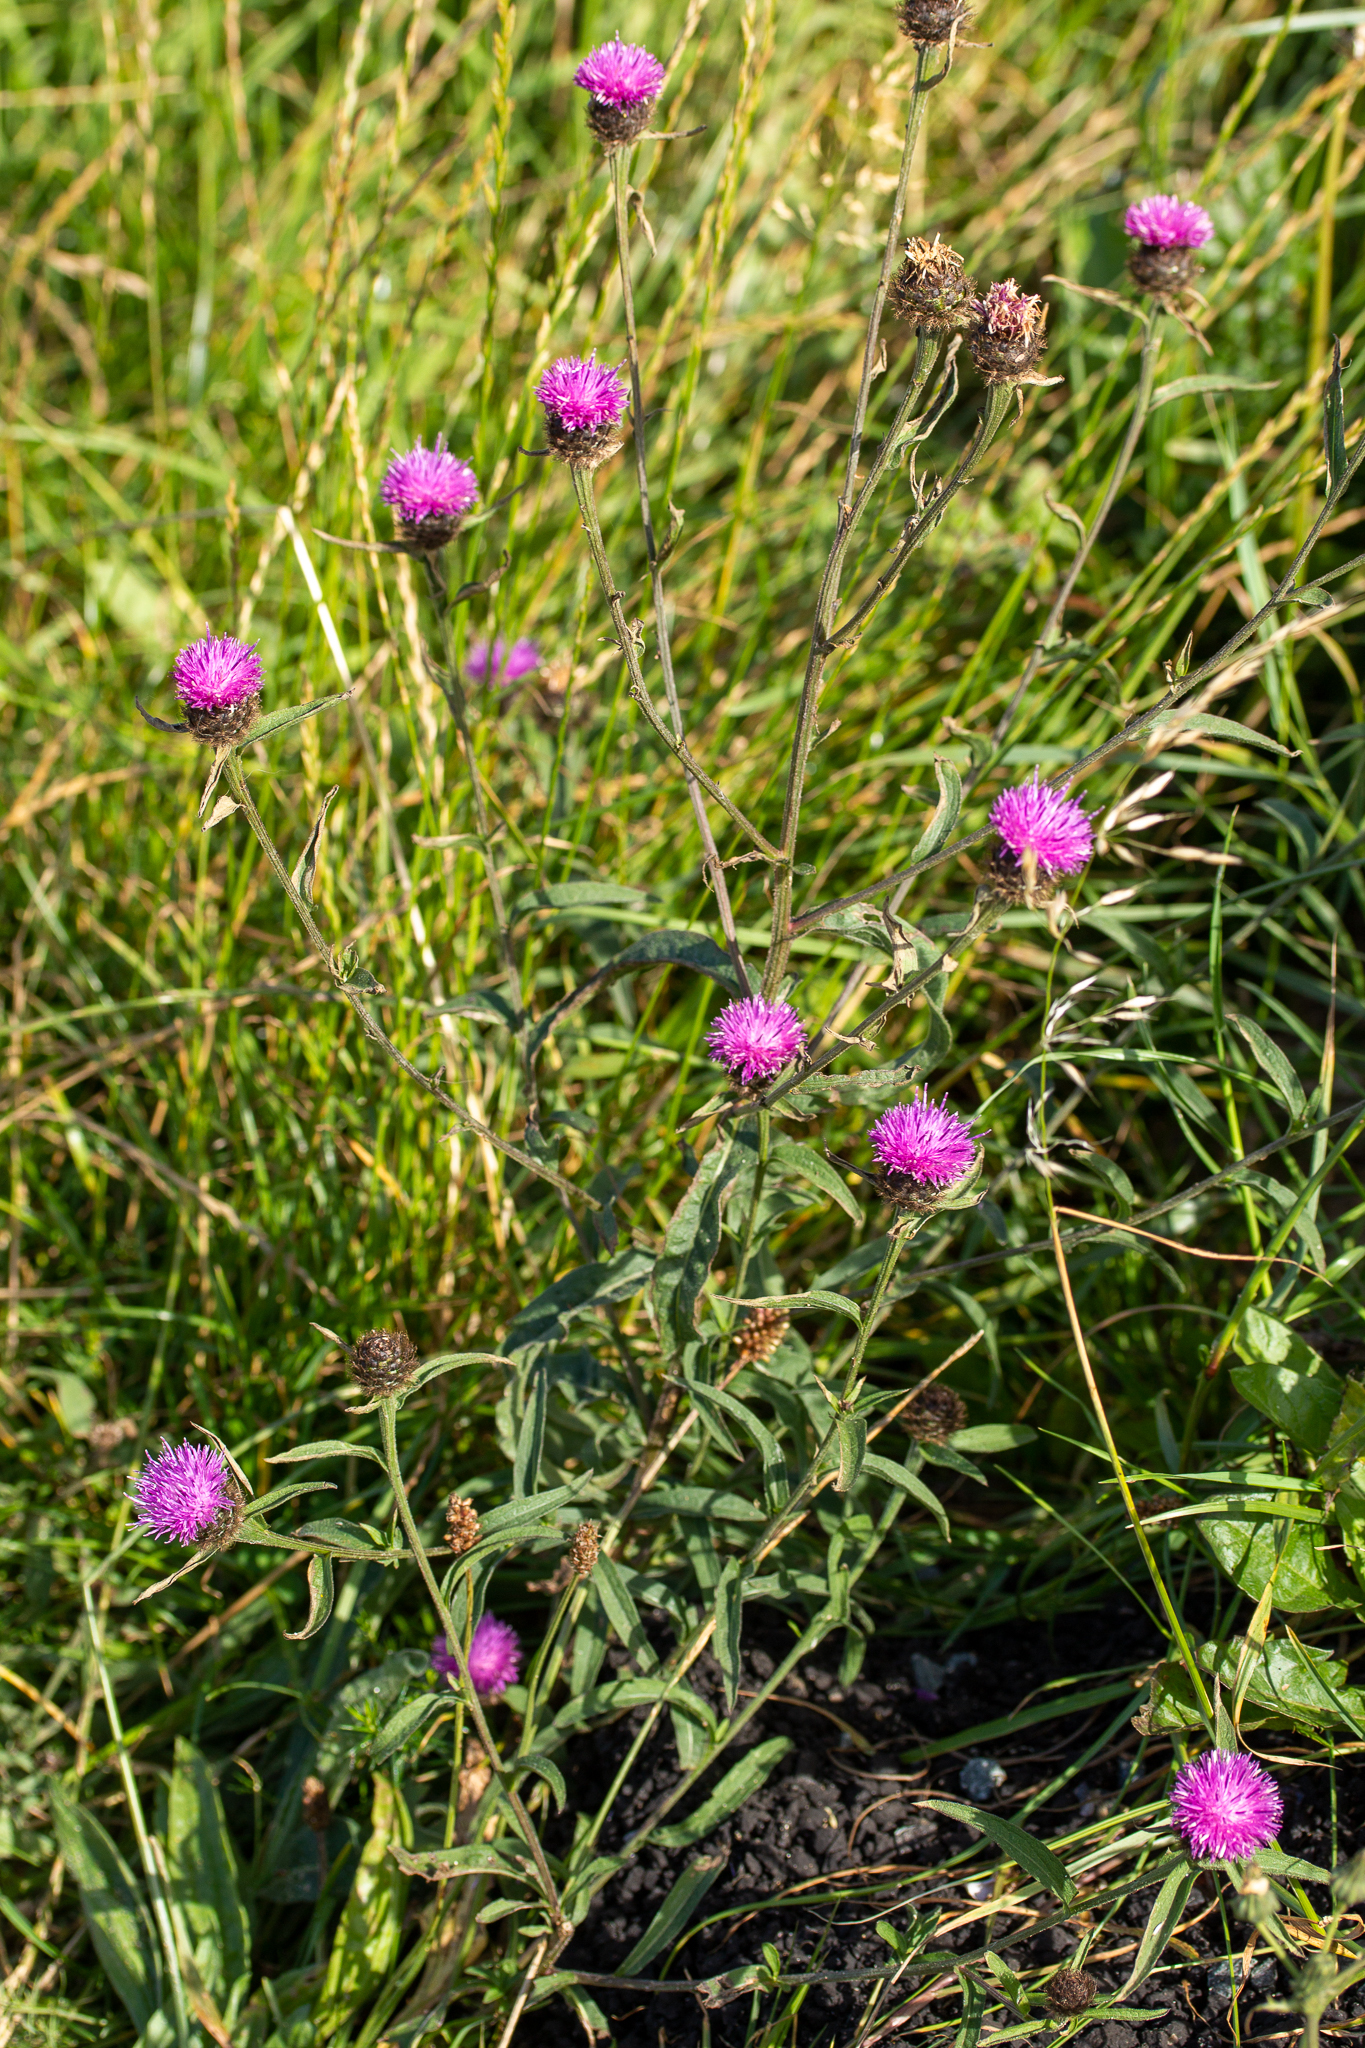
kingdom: Plantae
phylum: Tracheophyta
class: Magnoliopsida
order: Asterales
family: Asteraceae
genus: Centaurea
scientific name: Centaurea nigra
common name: Lesser knapweed
